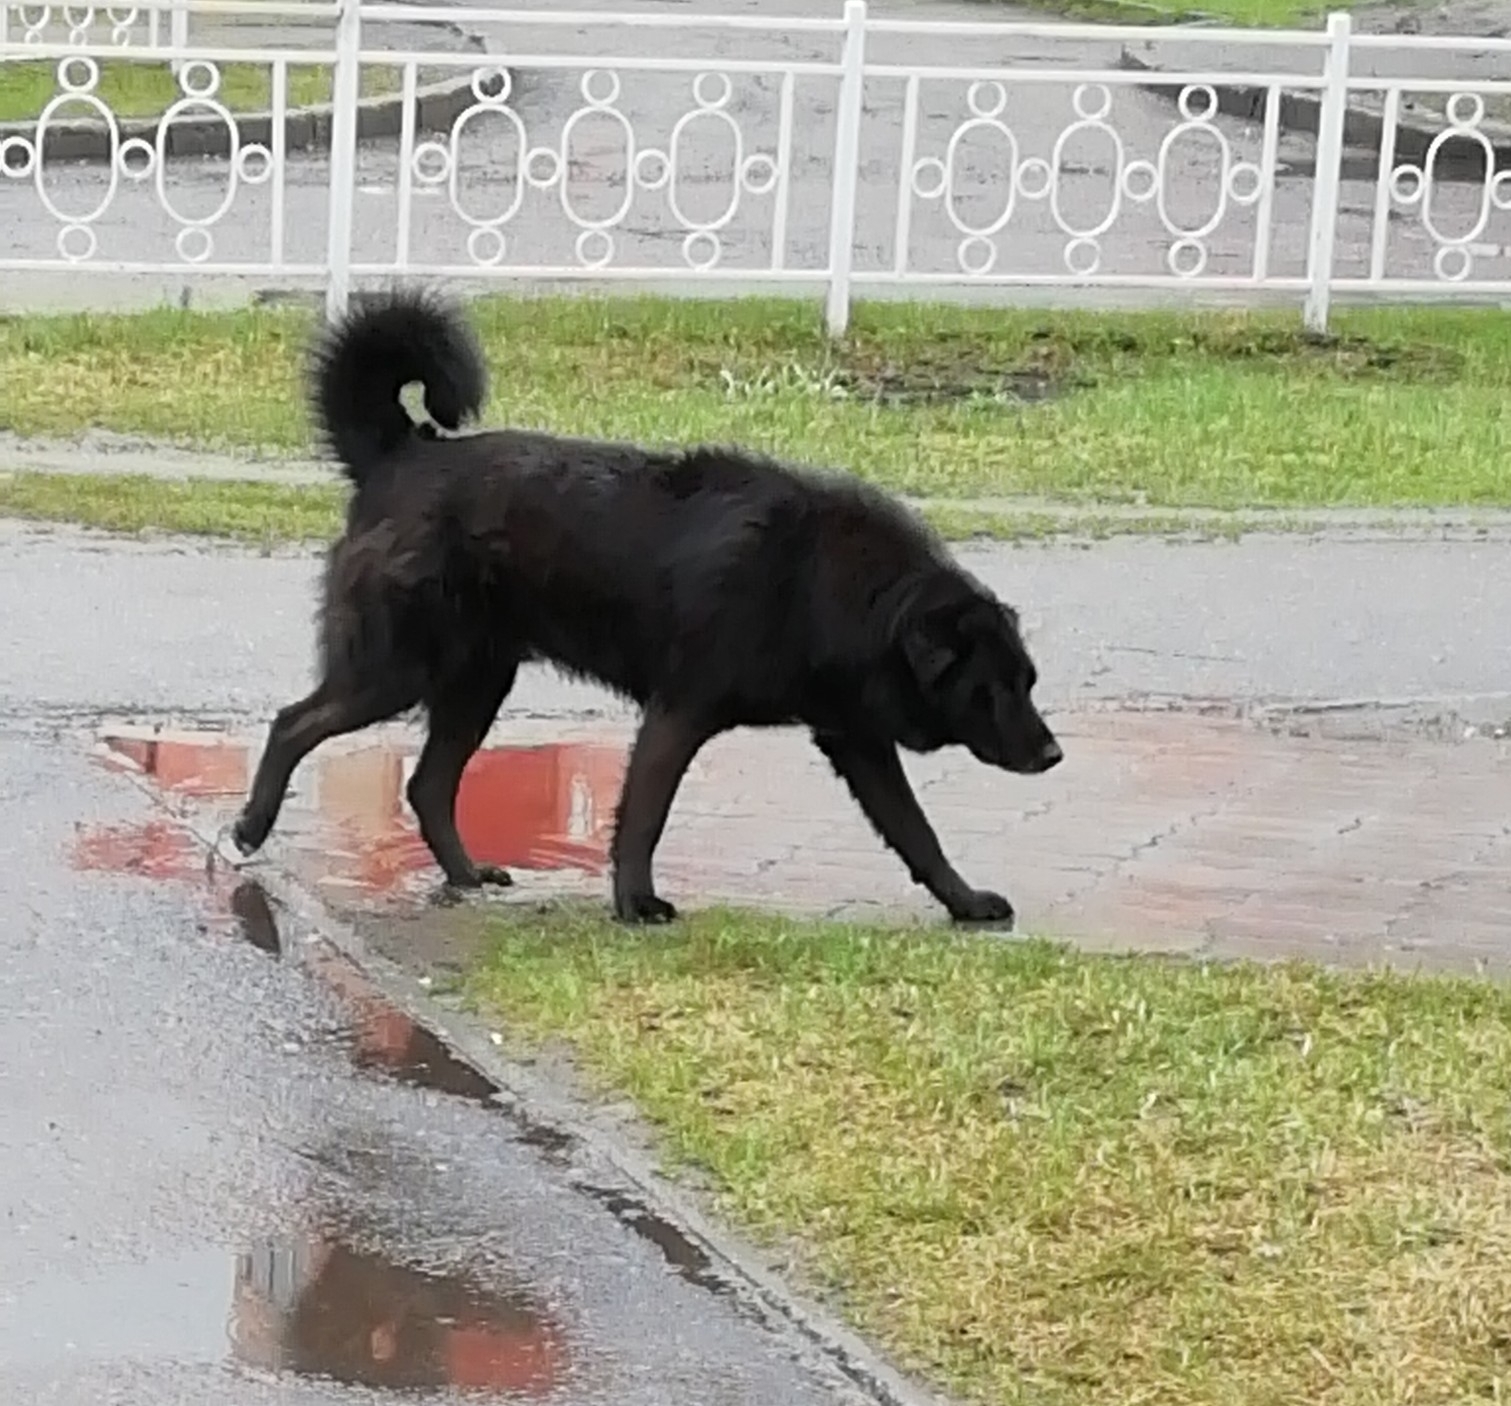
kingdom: Animalia
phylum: Chordata
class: Mammalia
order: Carnivora
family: Canidae
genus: Canis
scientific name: Canis lupus
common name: Gray wolf
